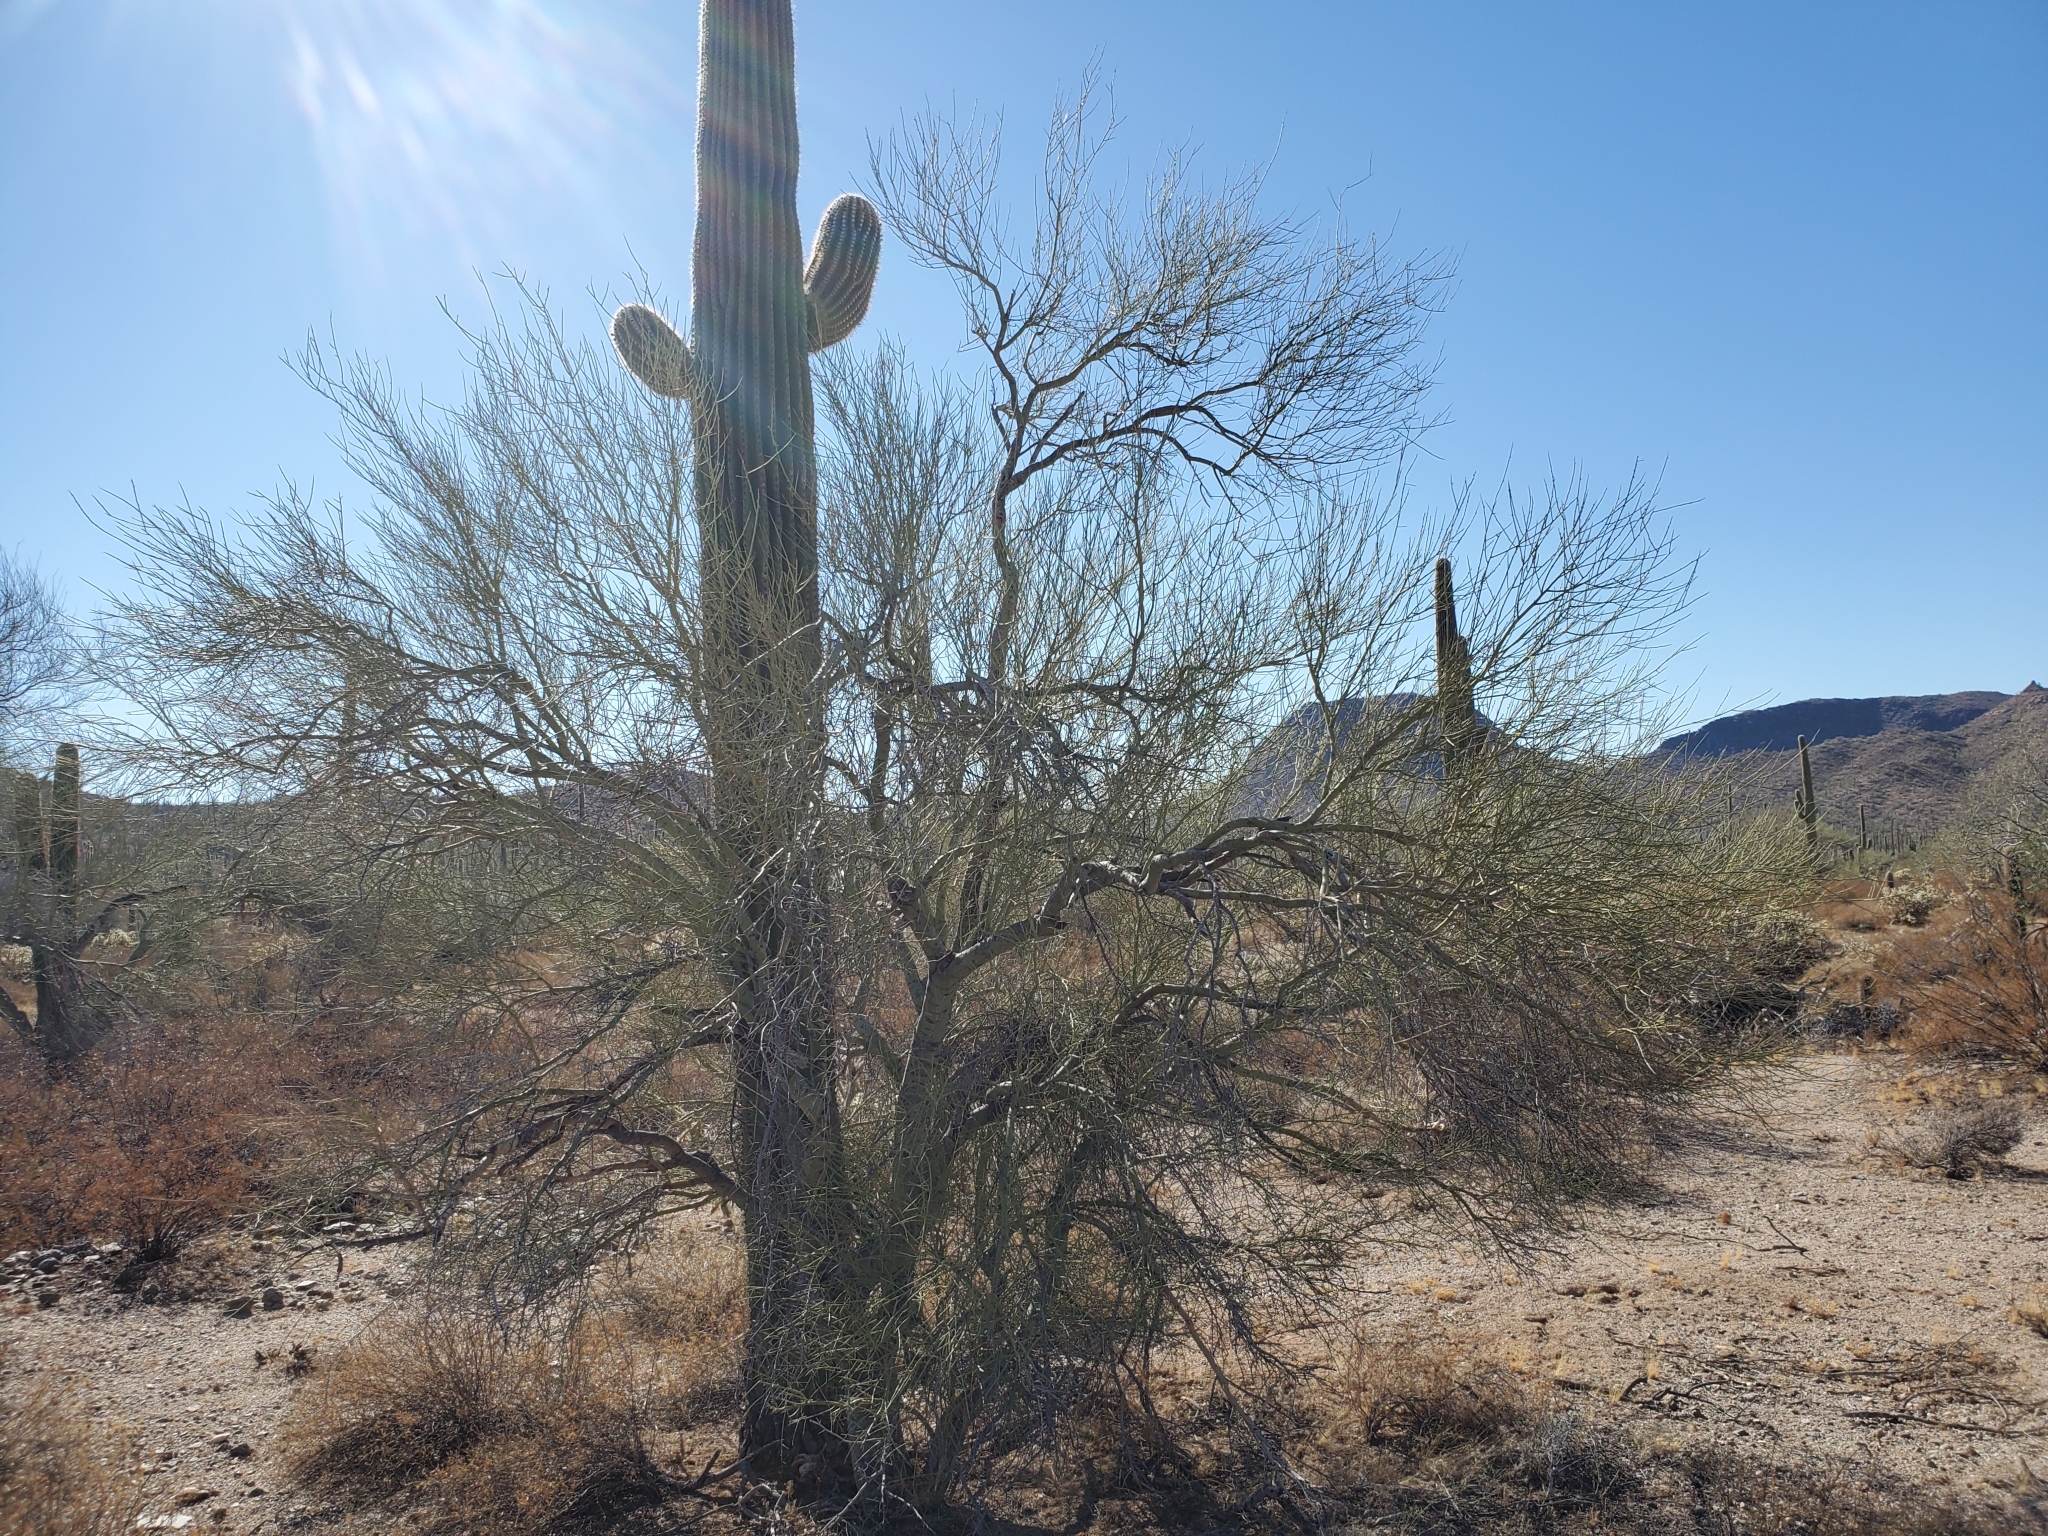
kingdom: Plantae
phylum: Tracheophyta
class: Magnoliopsida
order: Fabales
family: Fabaceae
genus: Parkinsonia
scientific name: Parkinsonia microphylla
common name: Yellow paloverde
